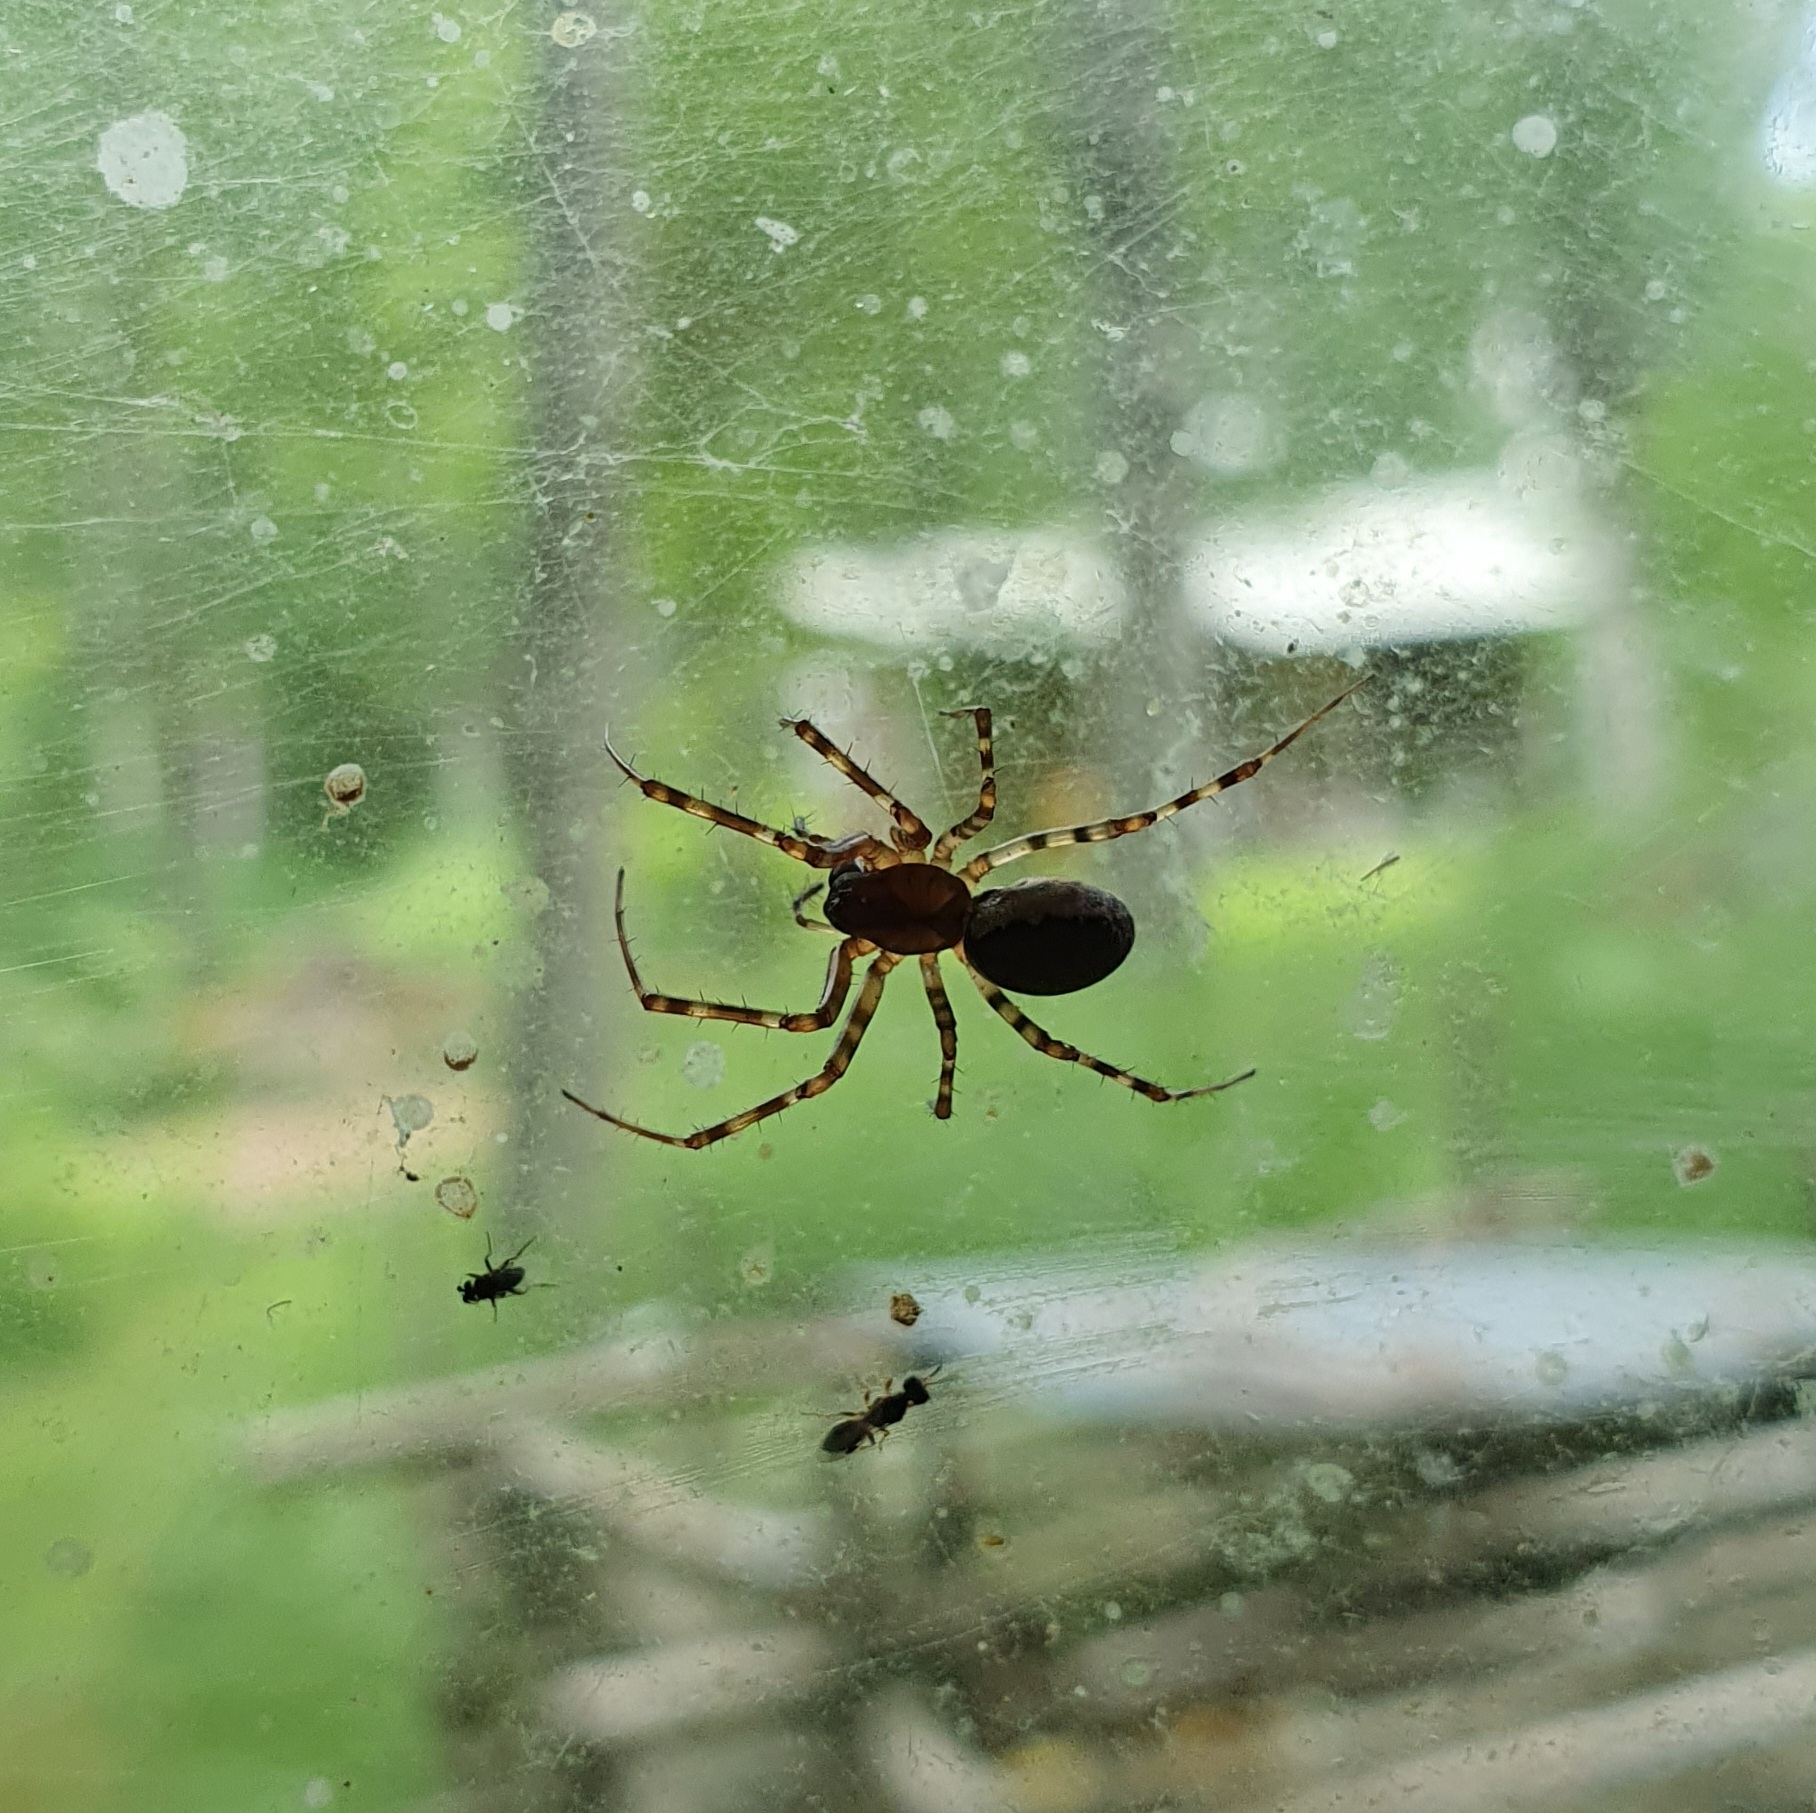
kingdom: Animalia
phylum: Arthropoda
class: Arachnida
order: Araneae
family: Linyphiidae
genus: Neriene
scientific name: Neriene montana
